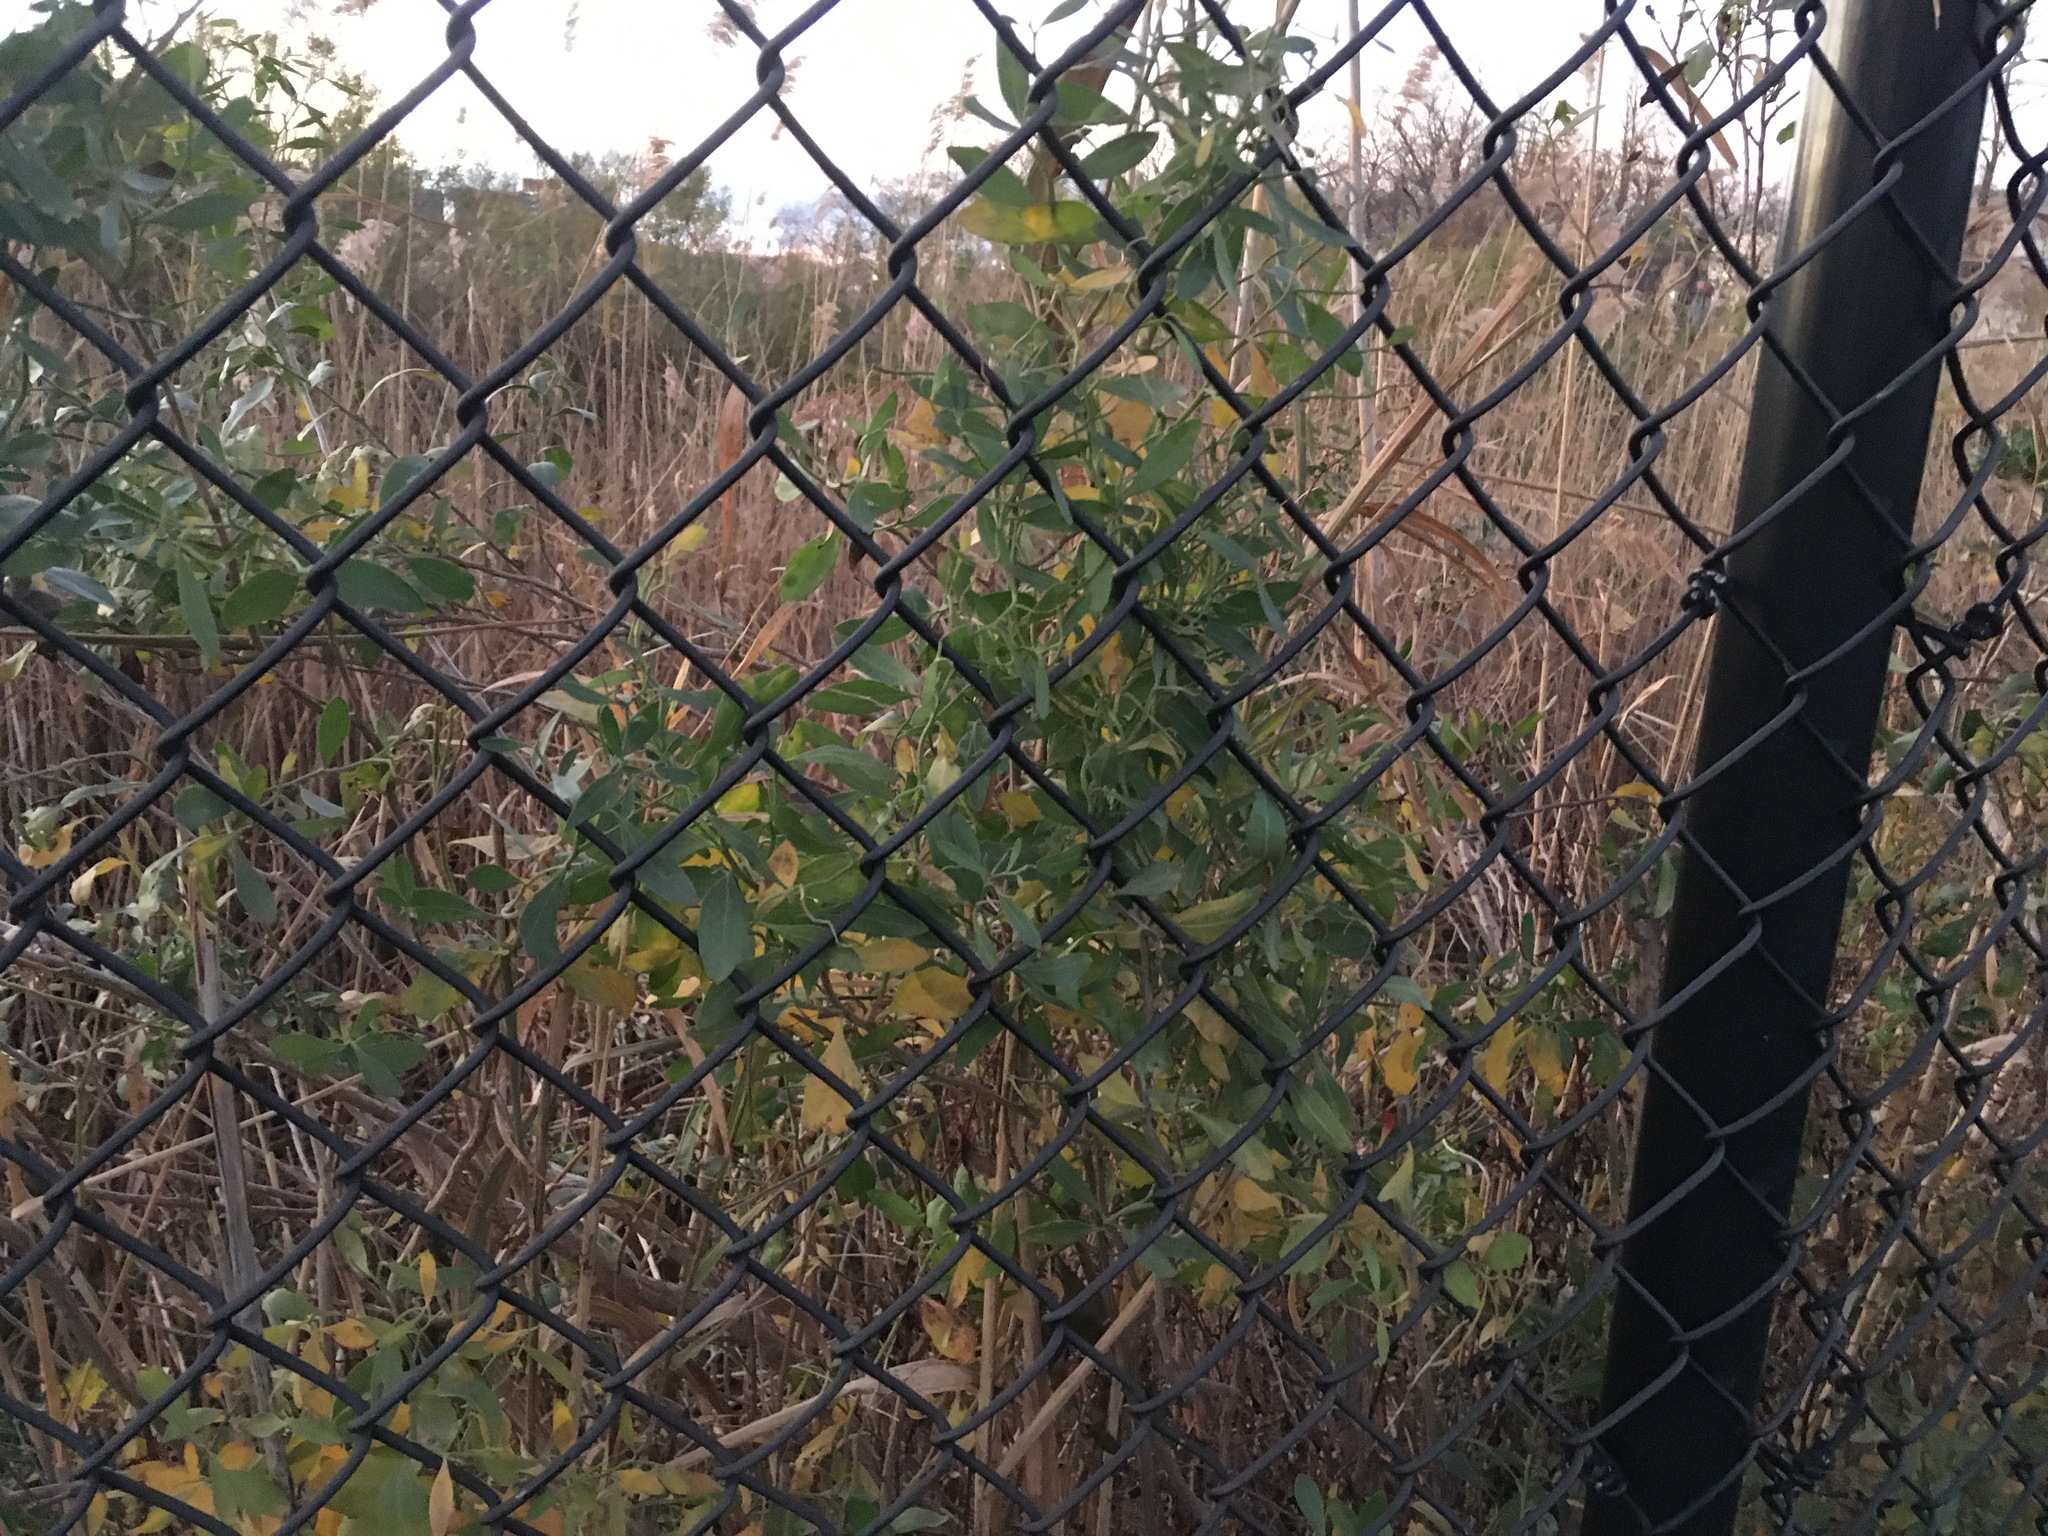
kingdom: Plantae
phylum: Tracheophyta
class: Magnoliopsida
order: Asterales
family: Asteraceae
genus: Baccharis
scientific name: Baccharis halimifolia
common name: Eastern baccharis
